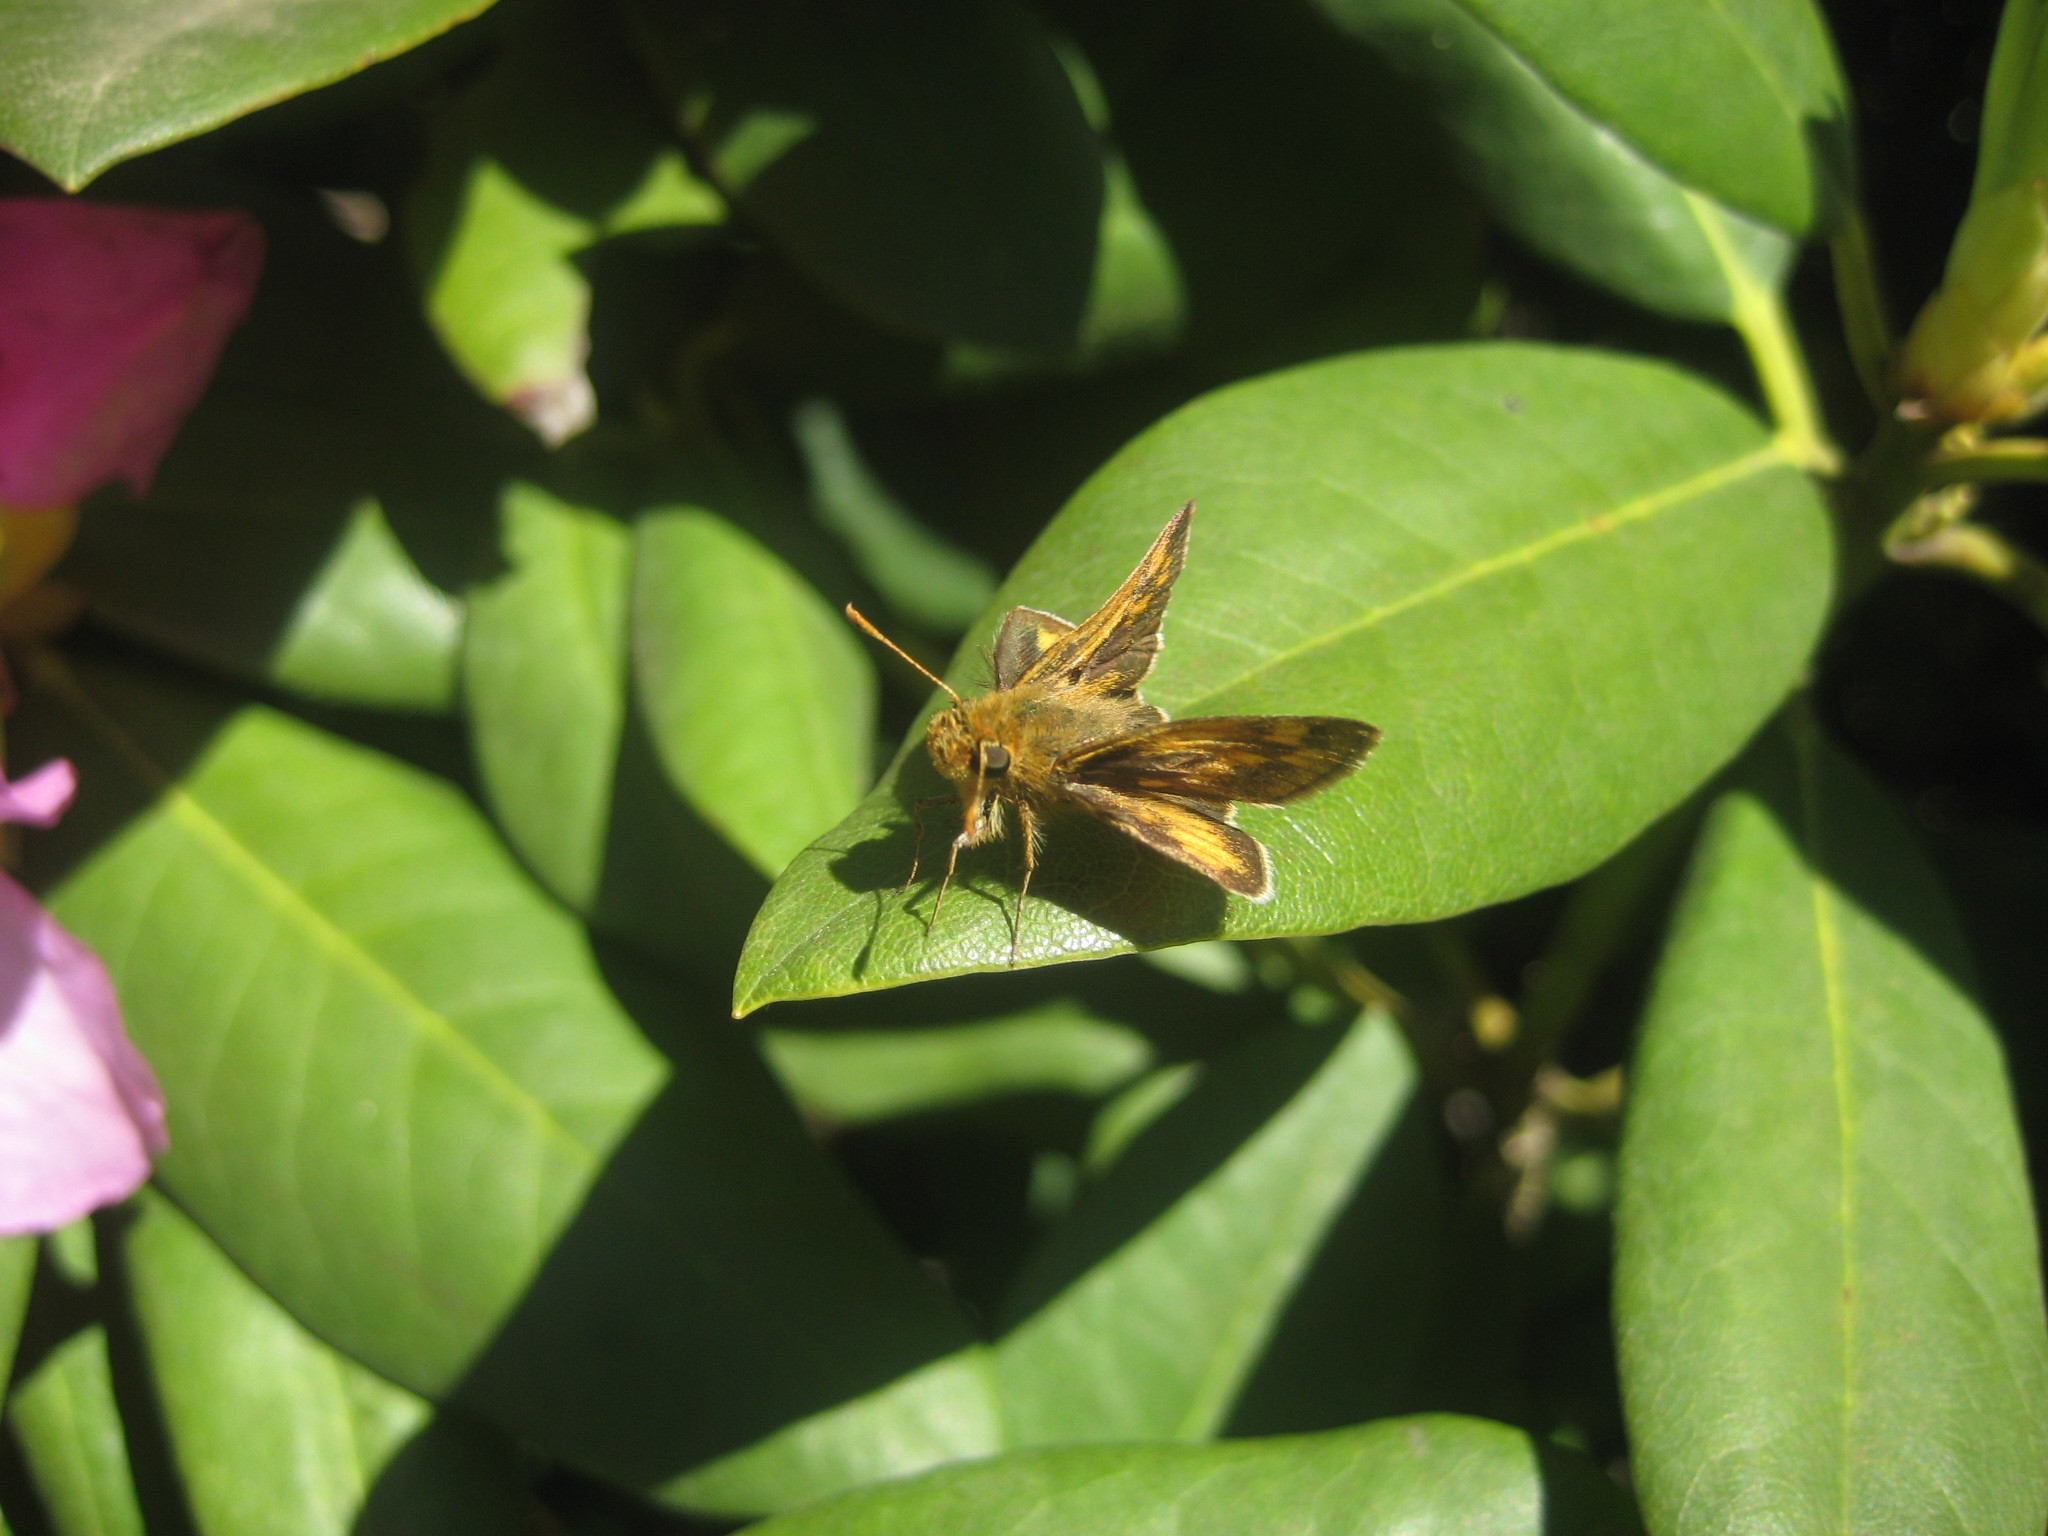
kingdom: Animalia
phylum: Arthropoda
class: Insecta
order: Lepidoptera
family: Hesperiidae
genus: Polites
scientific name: Polites coras
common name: Peck's skipper
